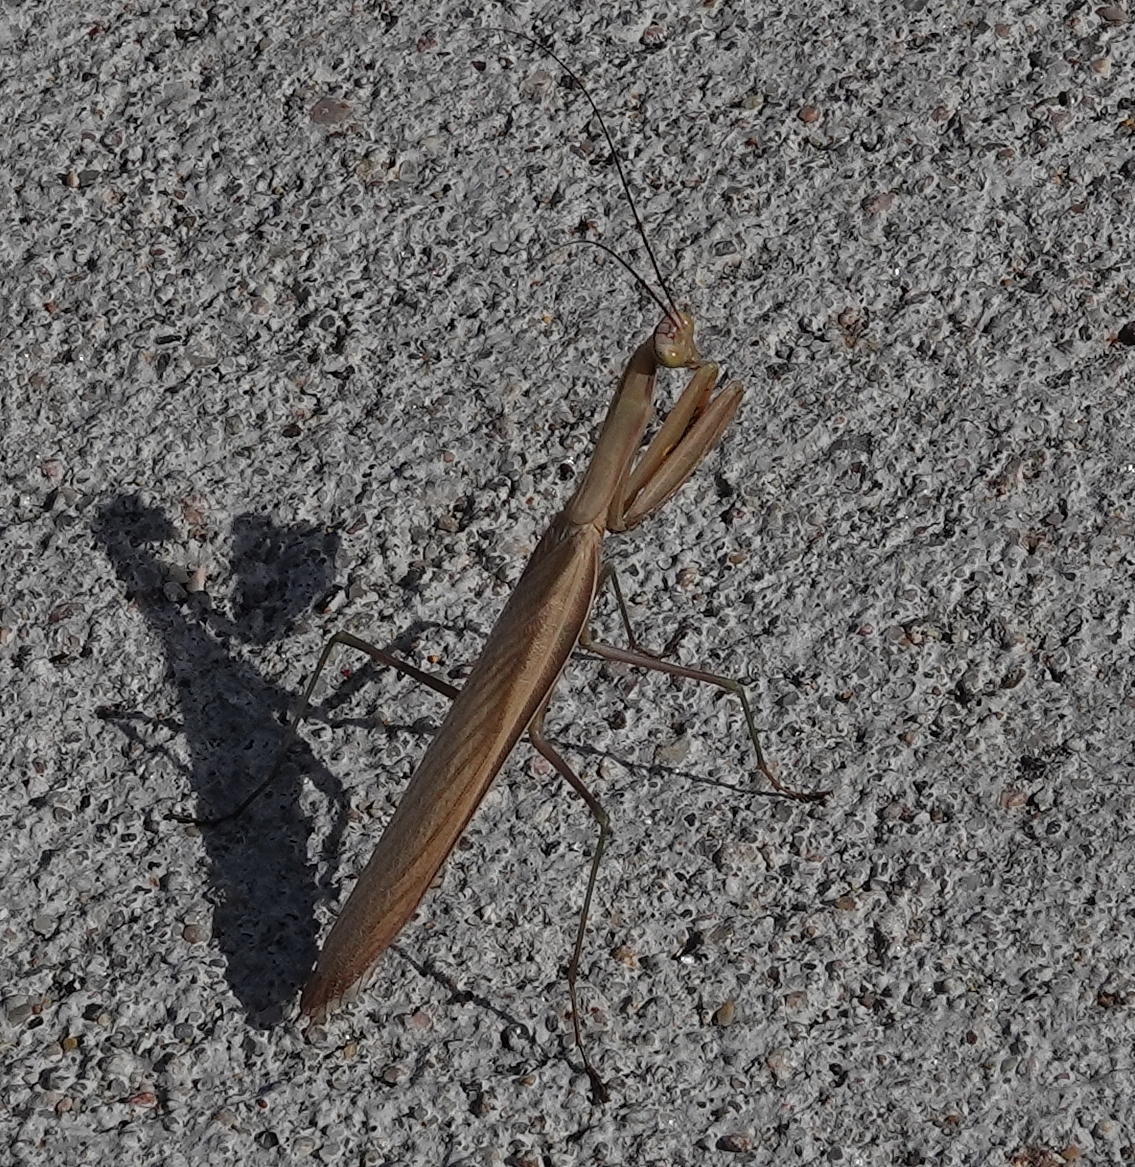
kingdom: Animalia
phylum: Arthropoda
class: Insecta
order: Mantodea
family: Mantidae
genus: Mantis
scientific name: Mantis religiosa
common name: Praying mantis
